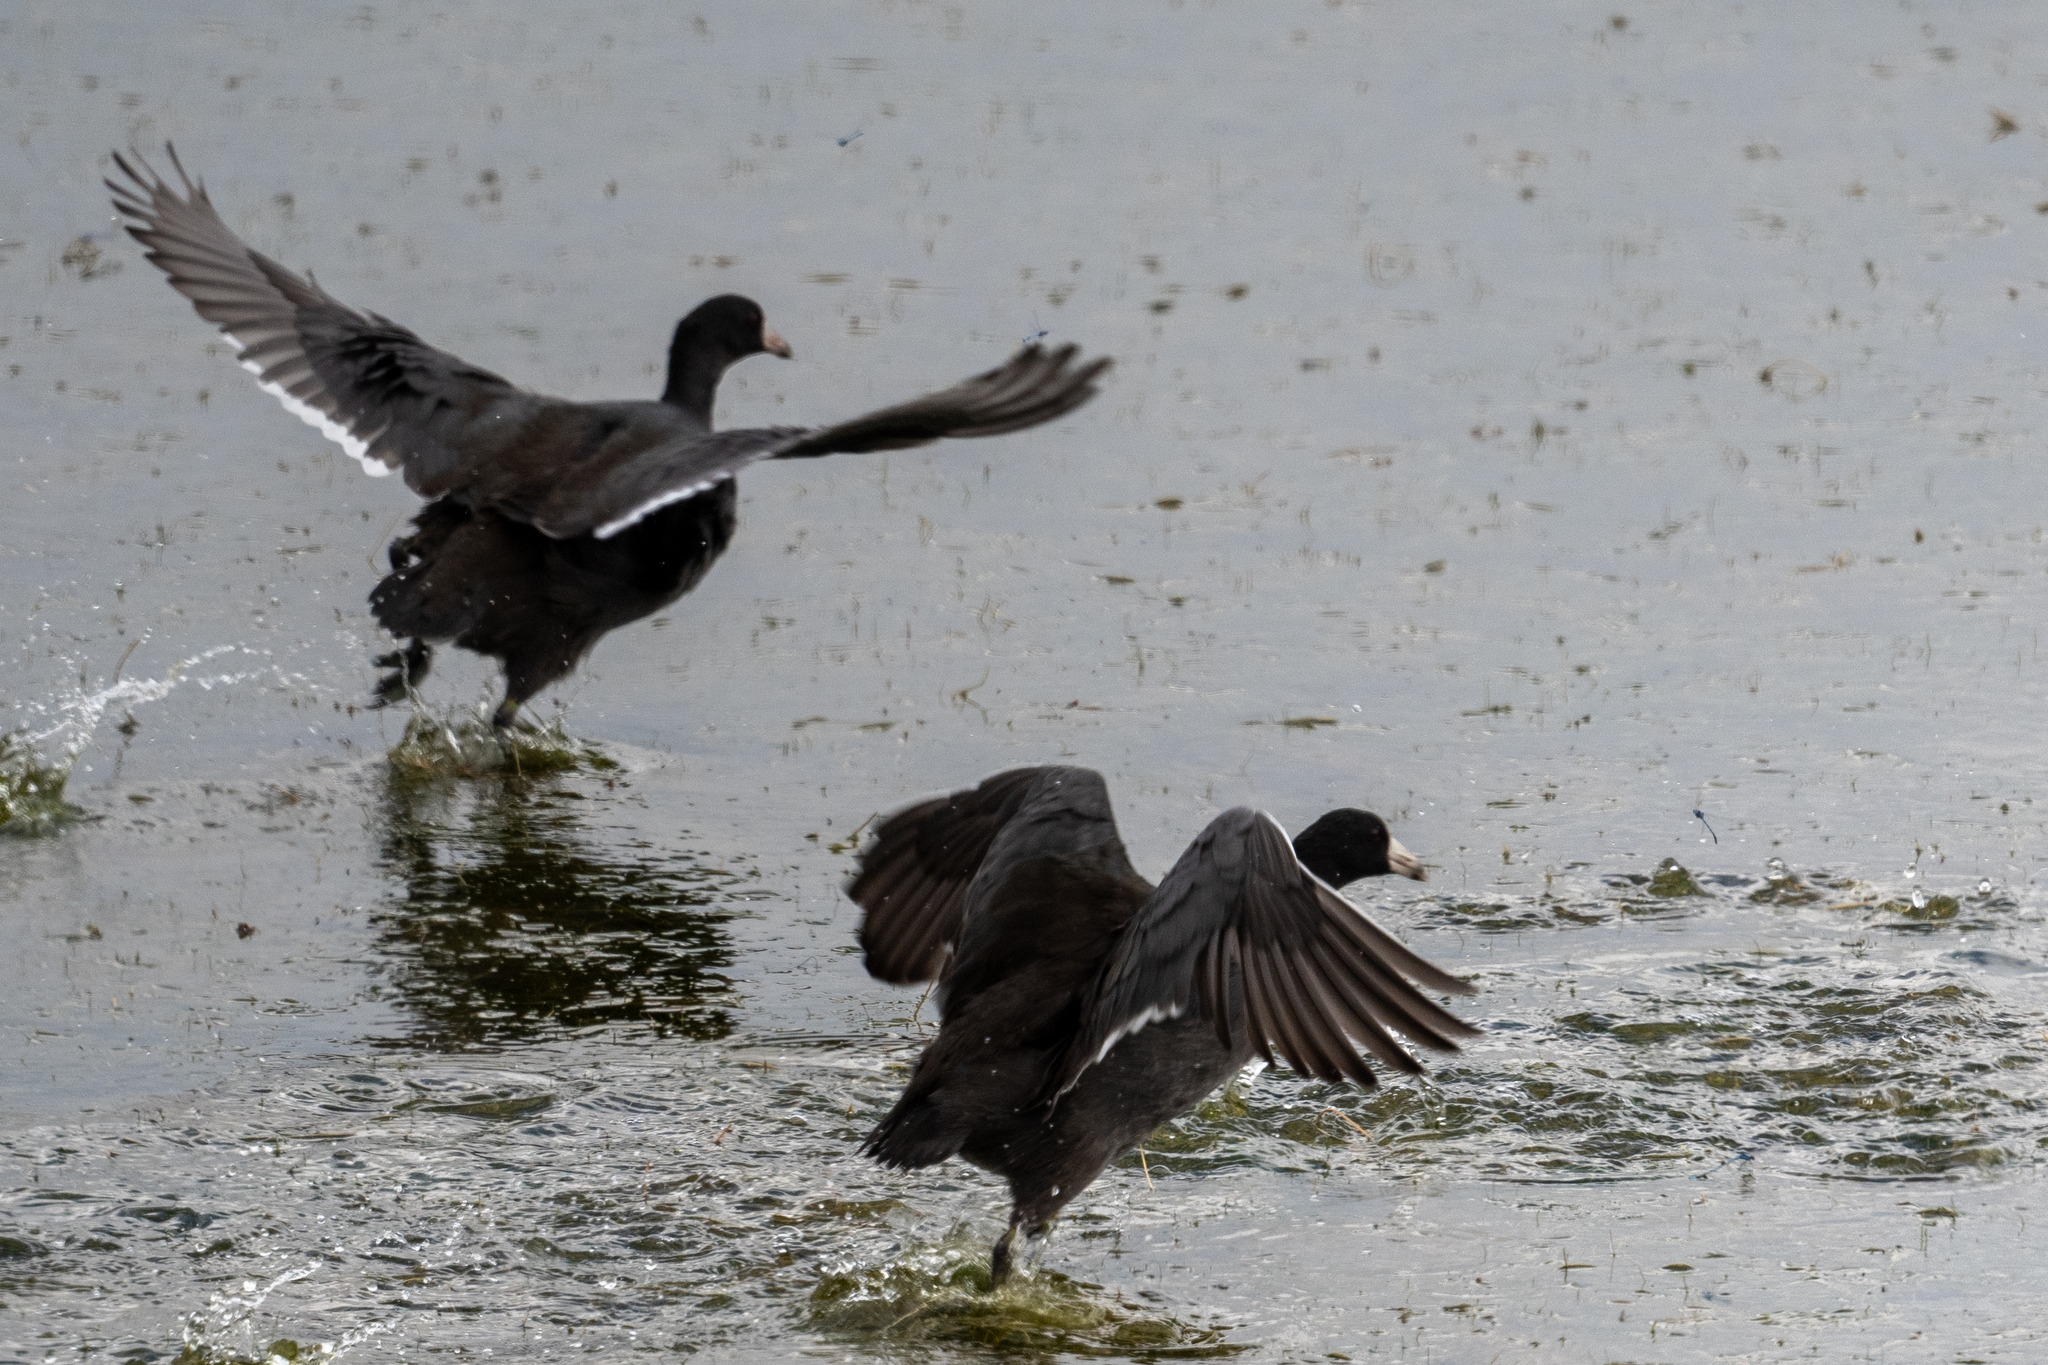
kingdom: Animalia
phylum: Chordata
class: Aves
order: Gruiformes
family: Rallidae
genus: Fulica
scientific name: Fulica americana
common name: American coot
